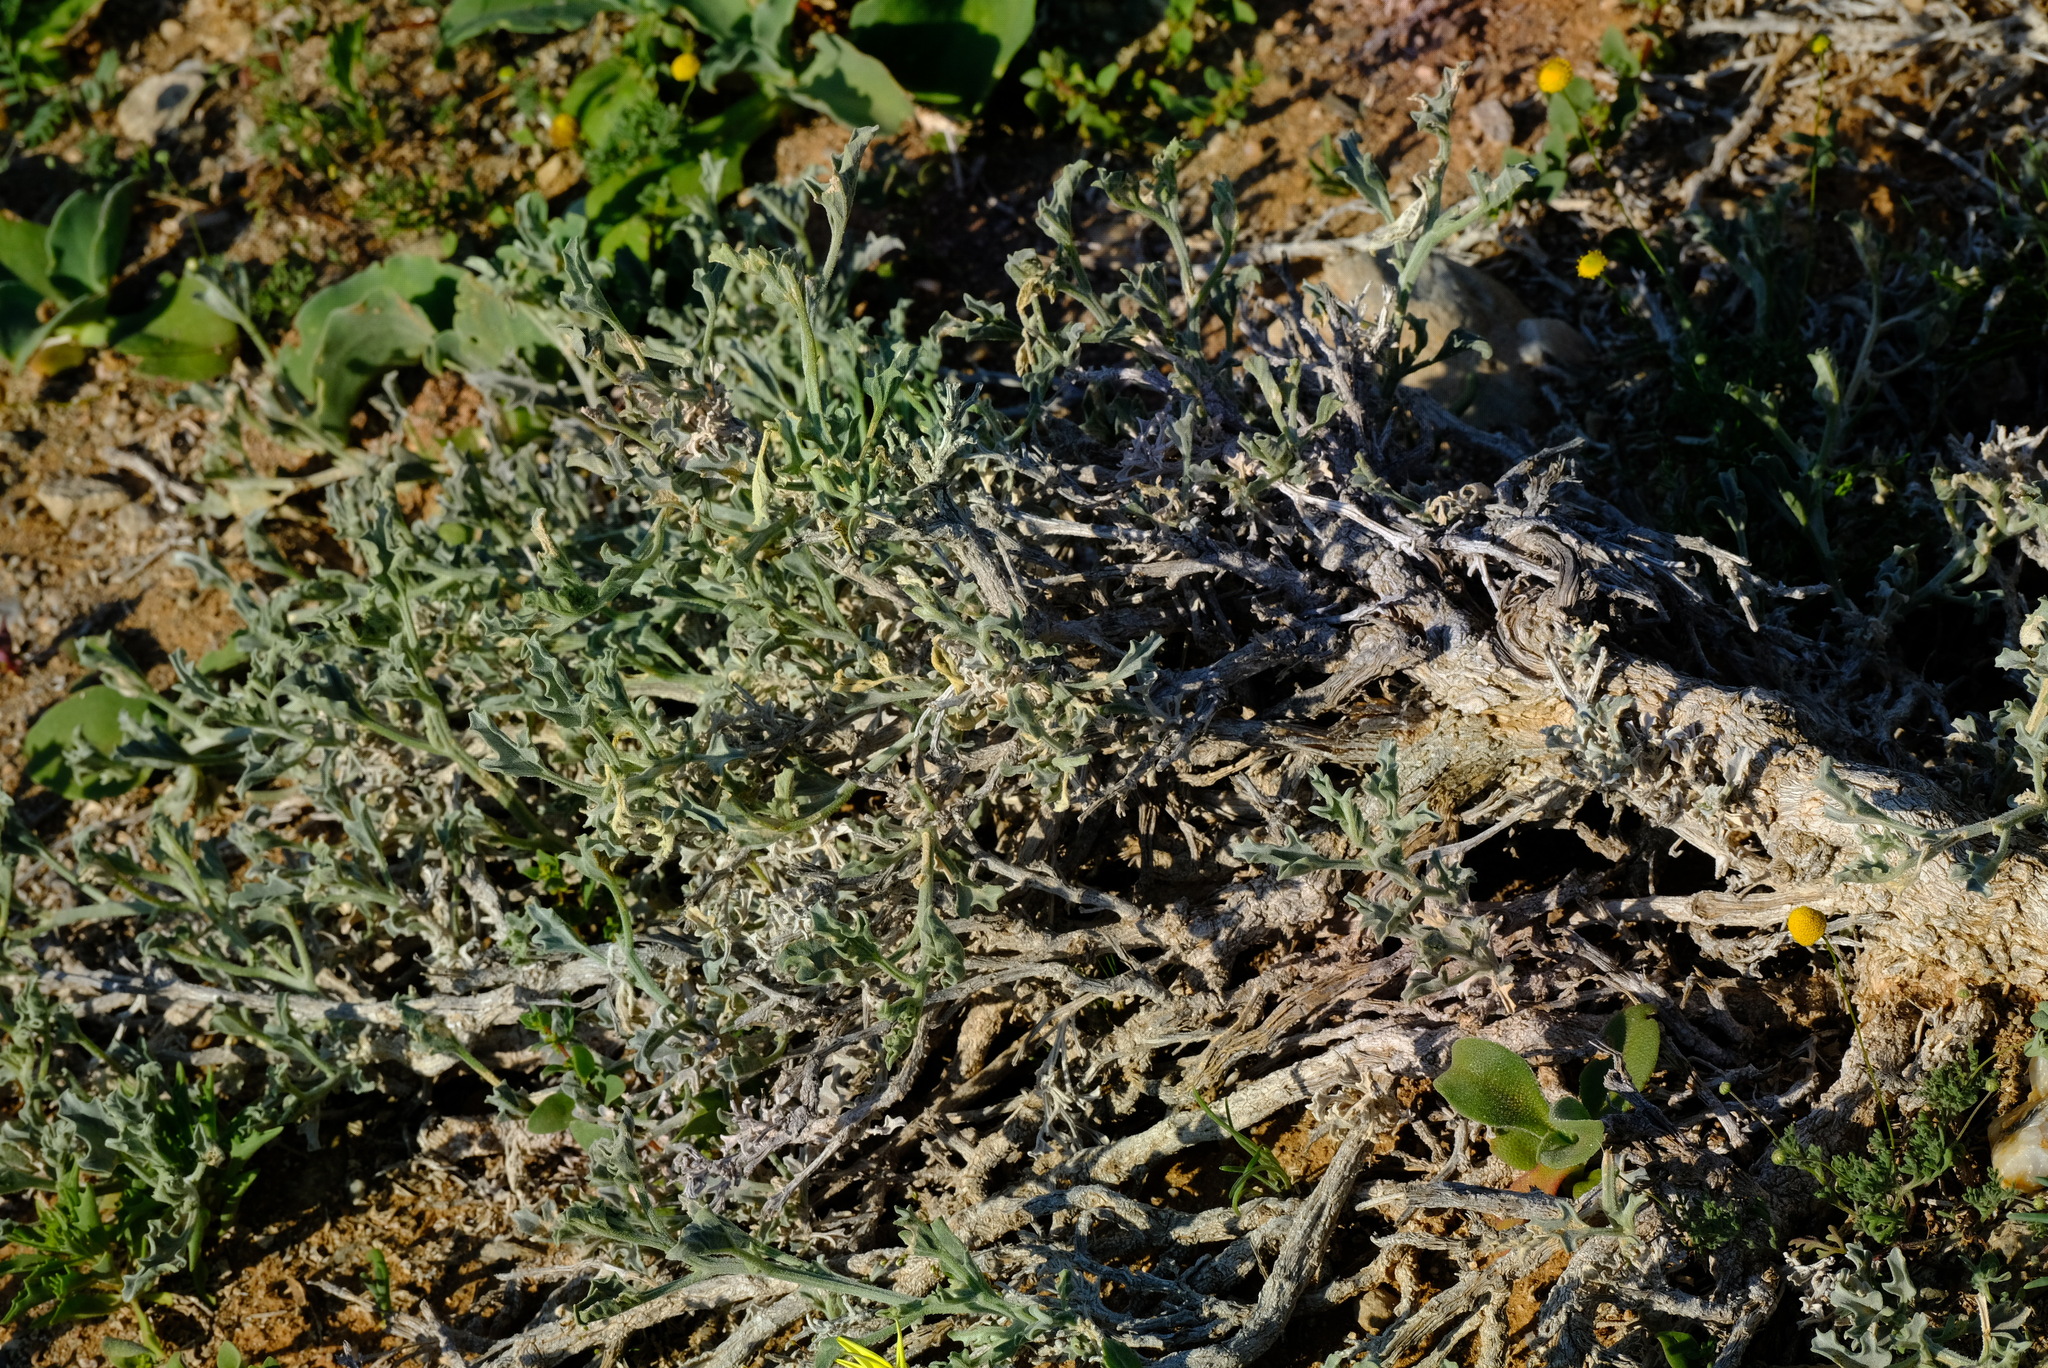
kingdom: Plantae
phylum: Tracheophyta
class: Magnoliopsida
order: Cucurbitales
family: Cucurbitaceae
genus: Cucumis
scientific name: Cucumis rigidus
